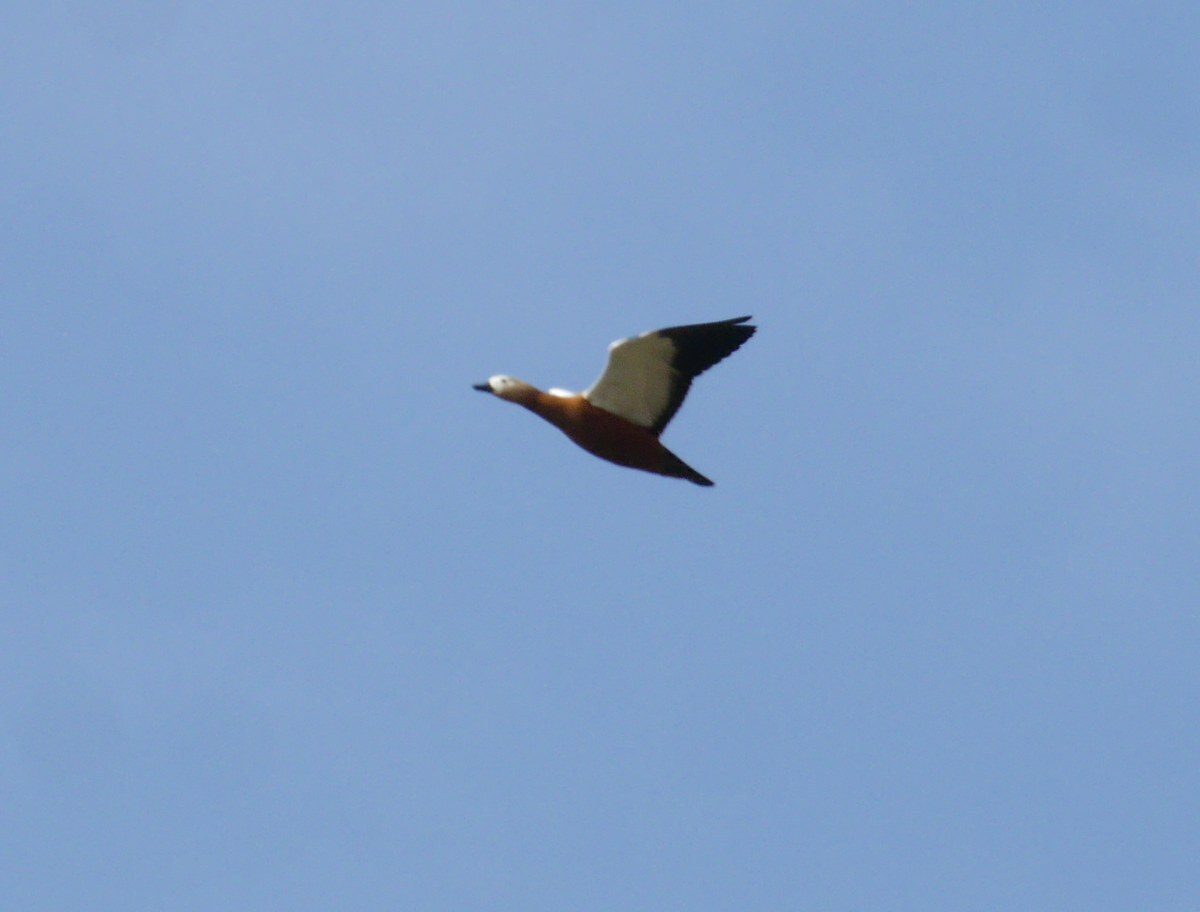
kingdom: Animalia
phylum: Chordata
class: Aves
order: Anseriformes
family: Anatidae
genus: Tadorna
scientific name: Tadorna ferruginea
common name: Ruddy shelduck
